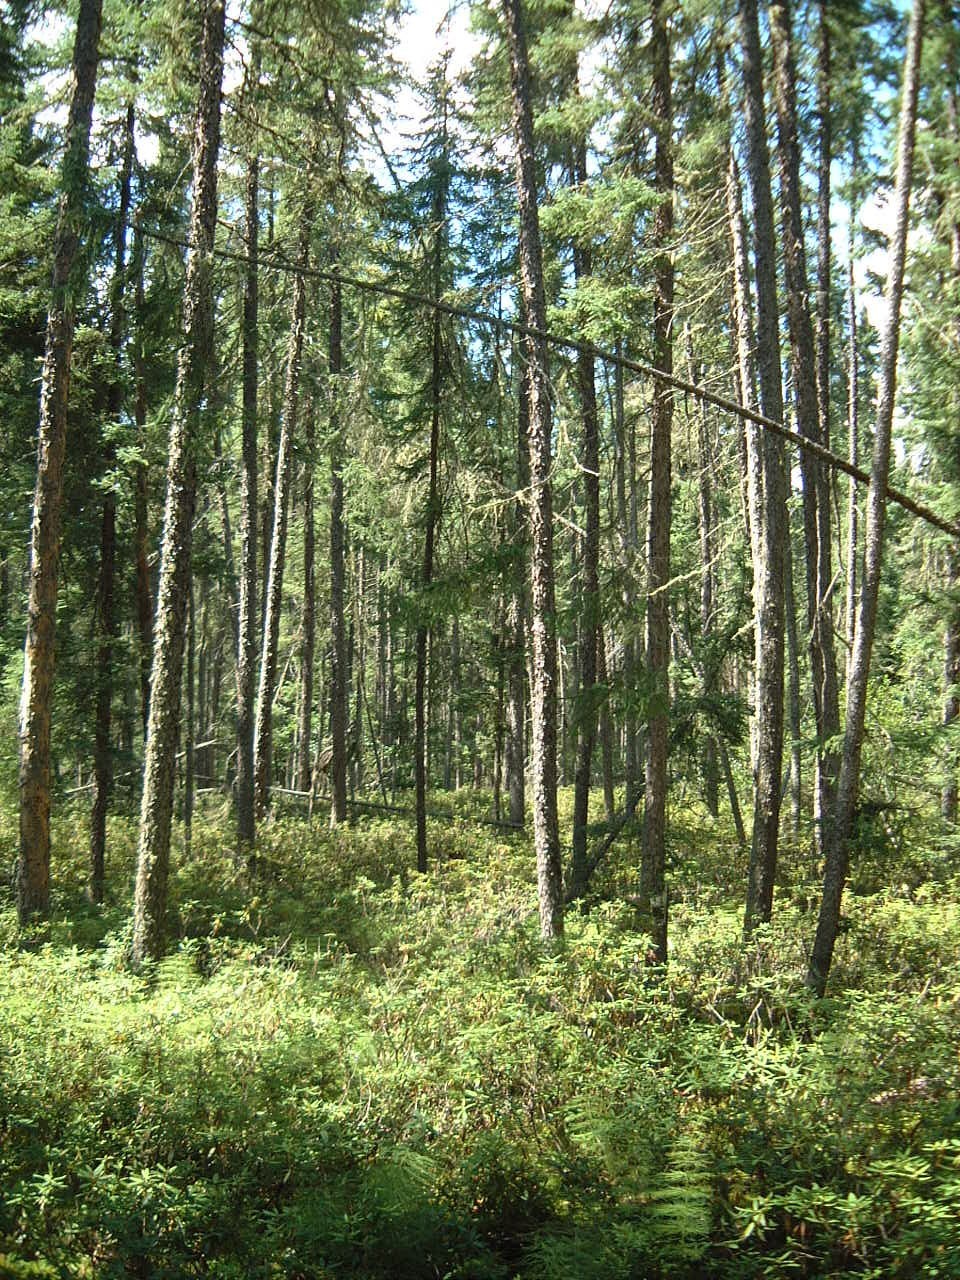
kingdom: Plantae
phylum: Tracheophyta
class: Pinopsida
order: Pinales
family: Pinaceae
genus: Picea
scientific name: Picea mariana
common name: Black spruce
